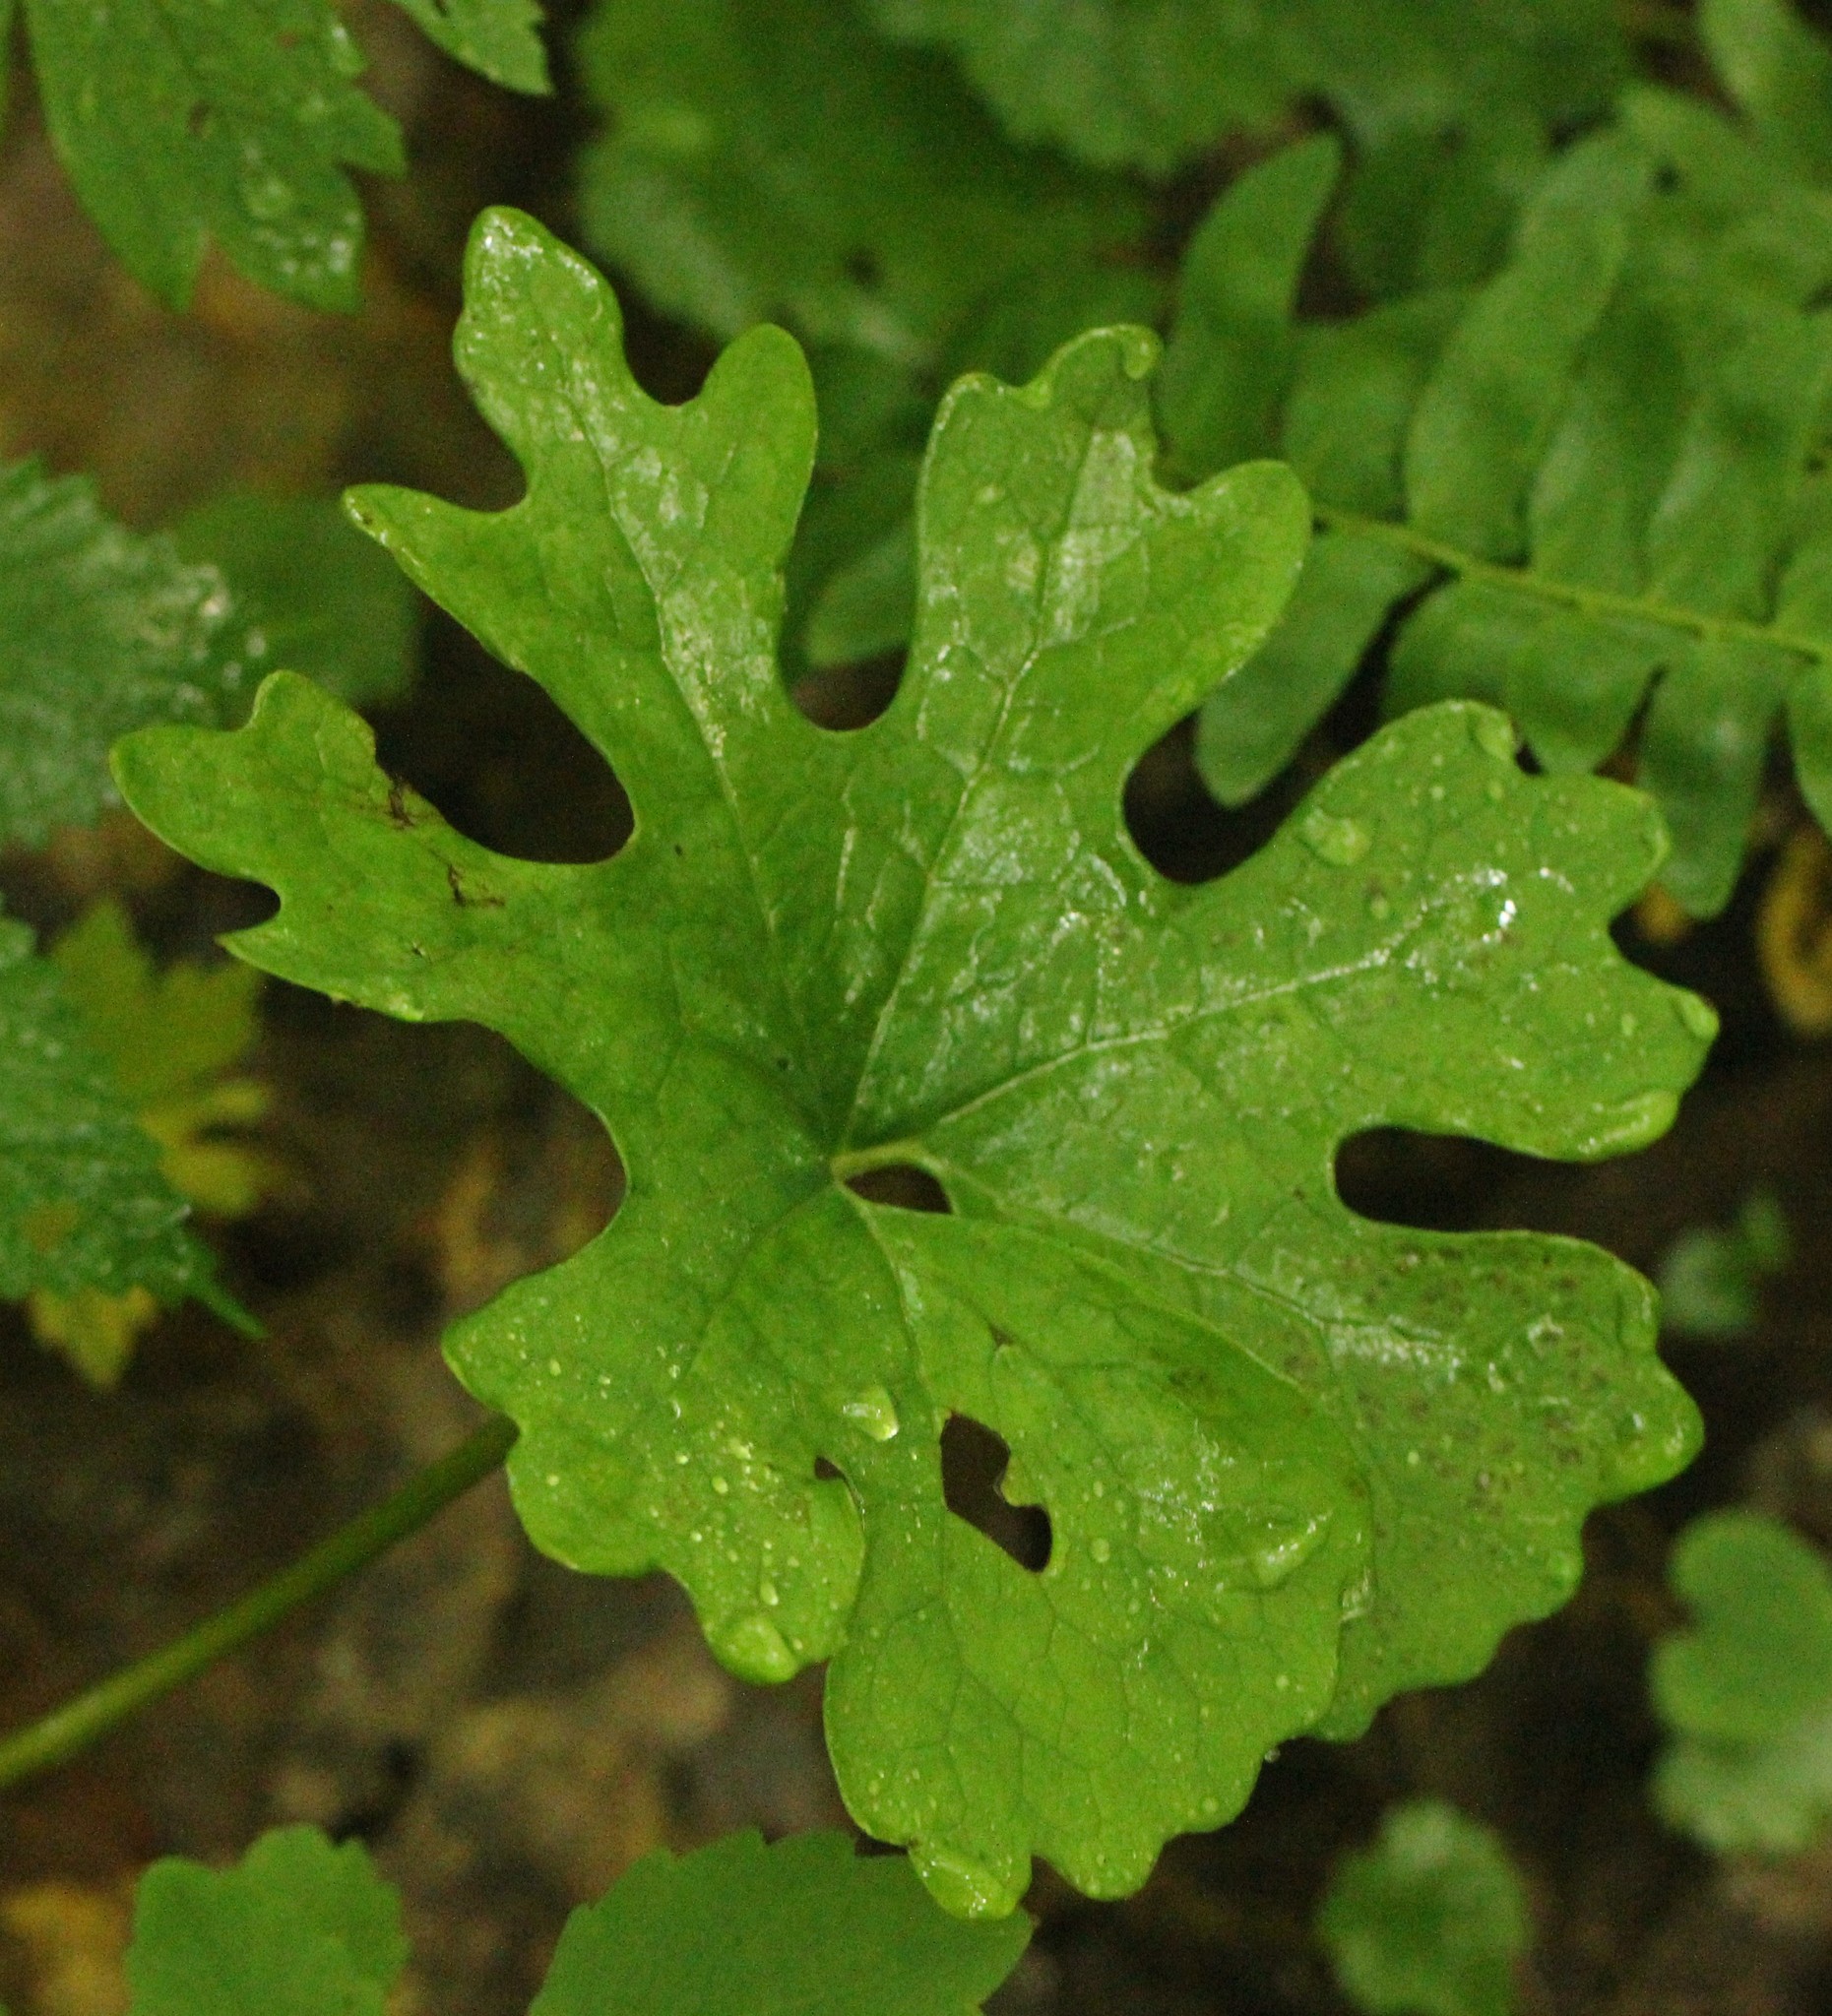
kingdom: Plantae
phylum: Tracheophyta
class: Magnoliopsida
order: Ranunculales
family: Papaveraceae
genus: Sanguinaria
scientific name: Sanguinaria canadensis
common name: Bloodroot
